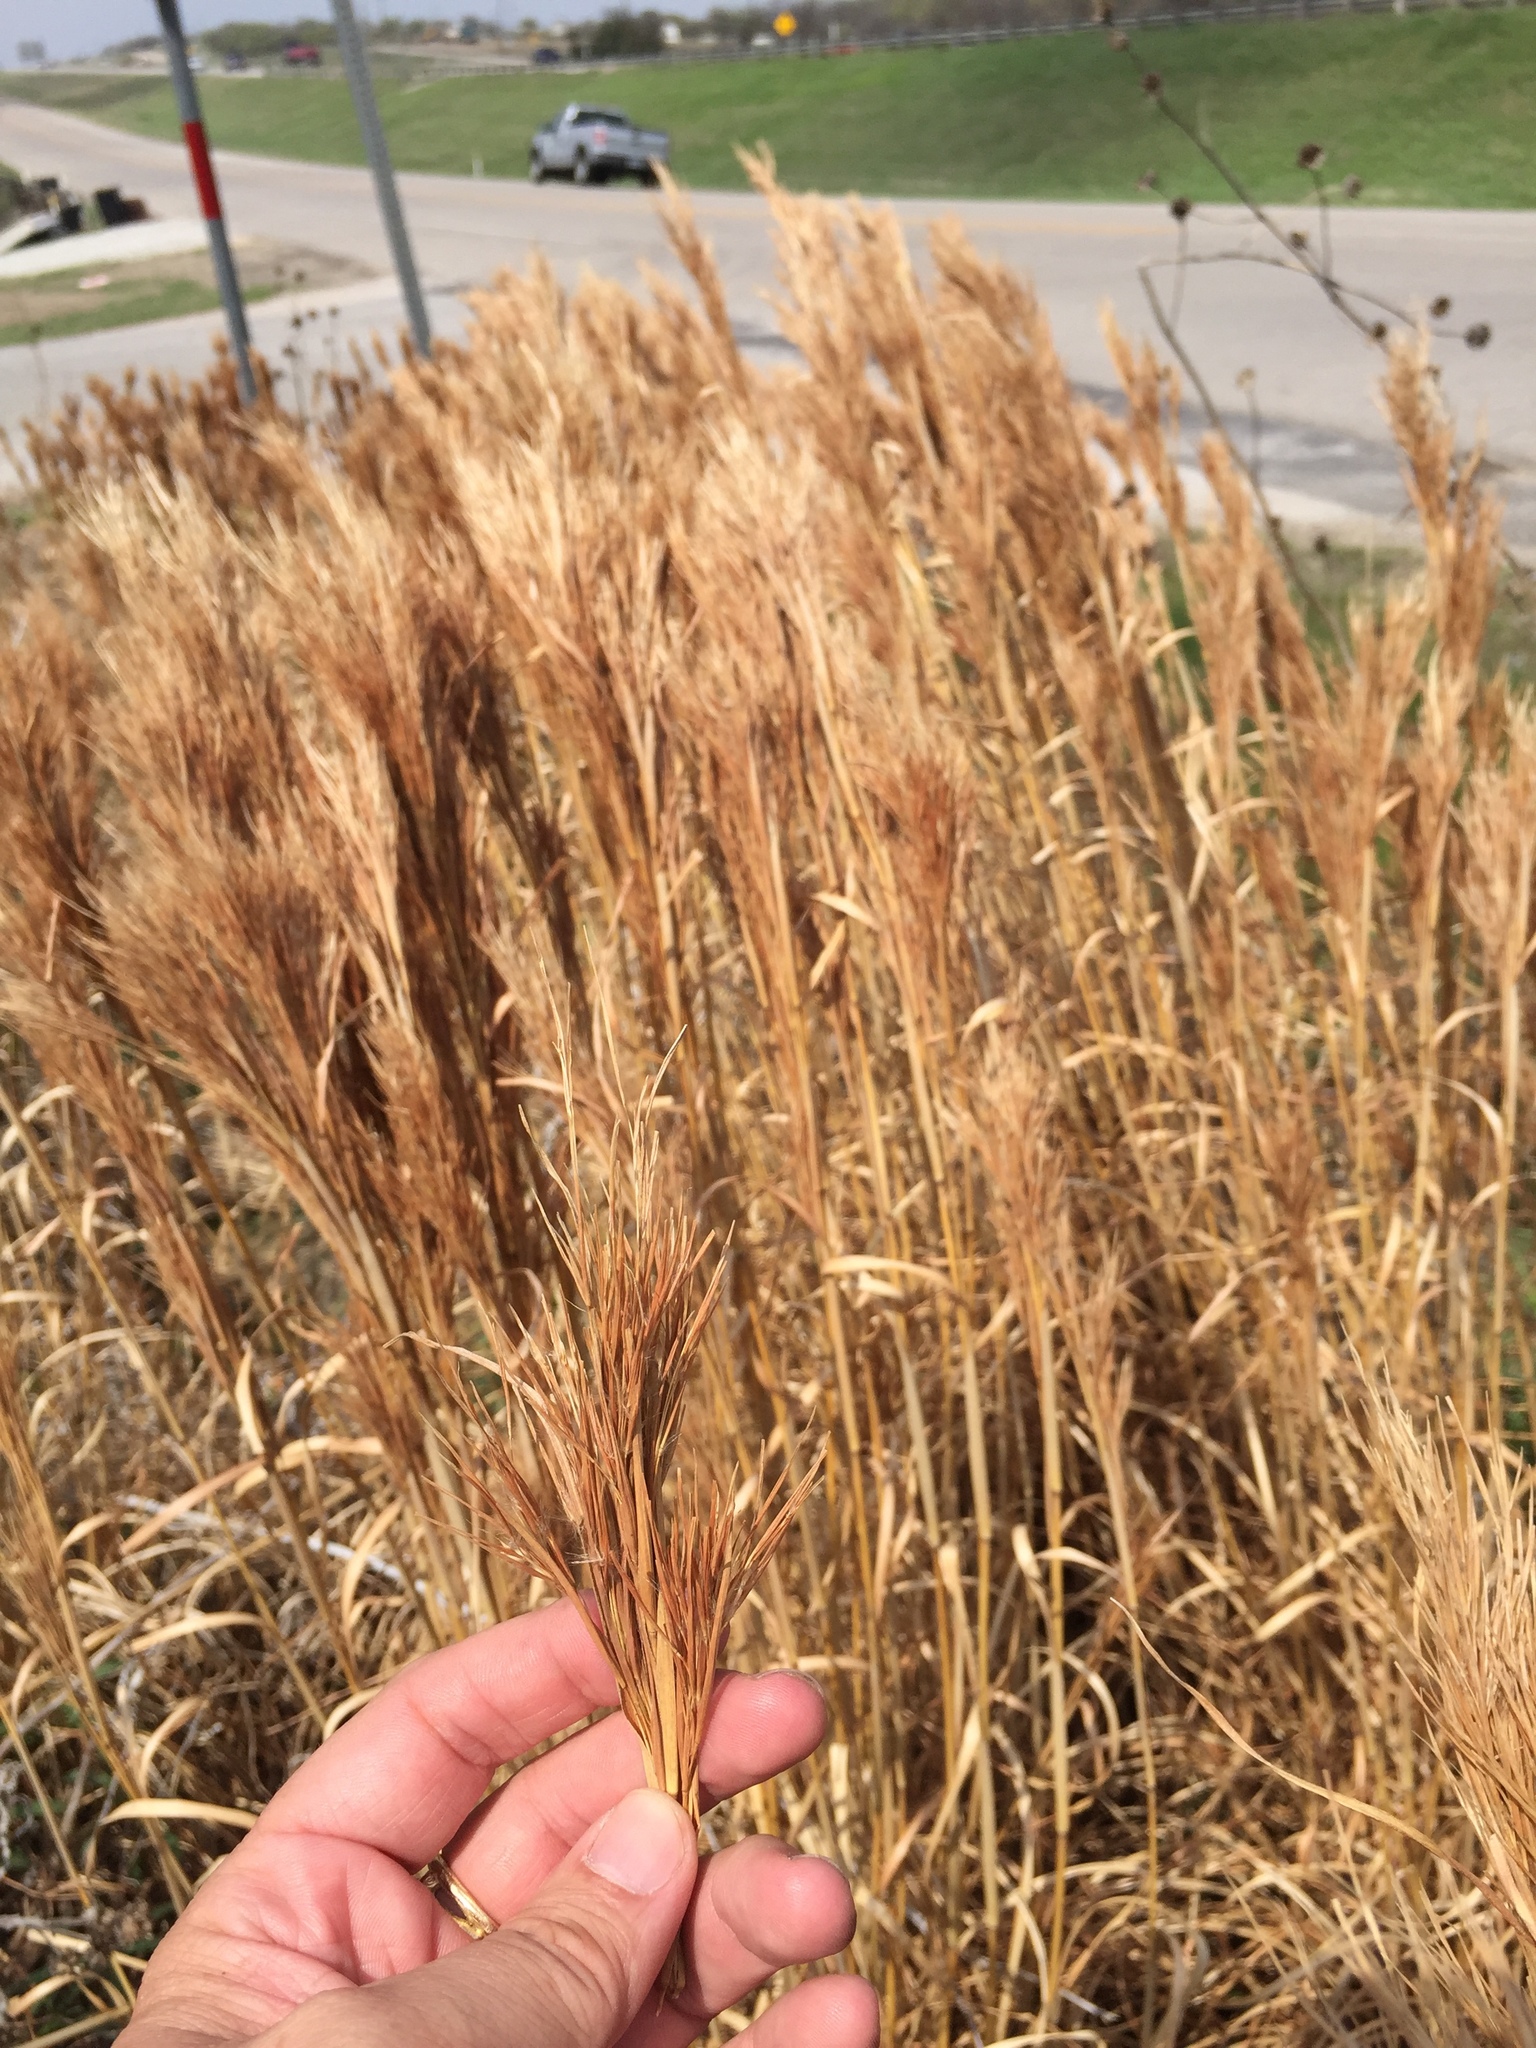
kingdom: Plantae
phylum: Tracheophyta
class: Liliopsida
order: Poales
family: Poaceae
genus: Andropogon
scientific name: Andropogon tenuispatheus
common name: Bushy bluestem
